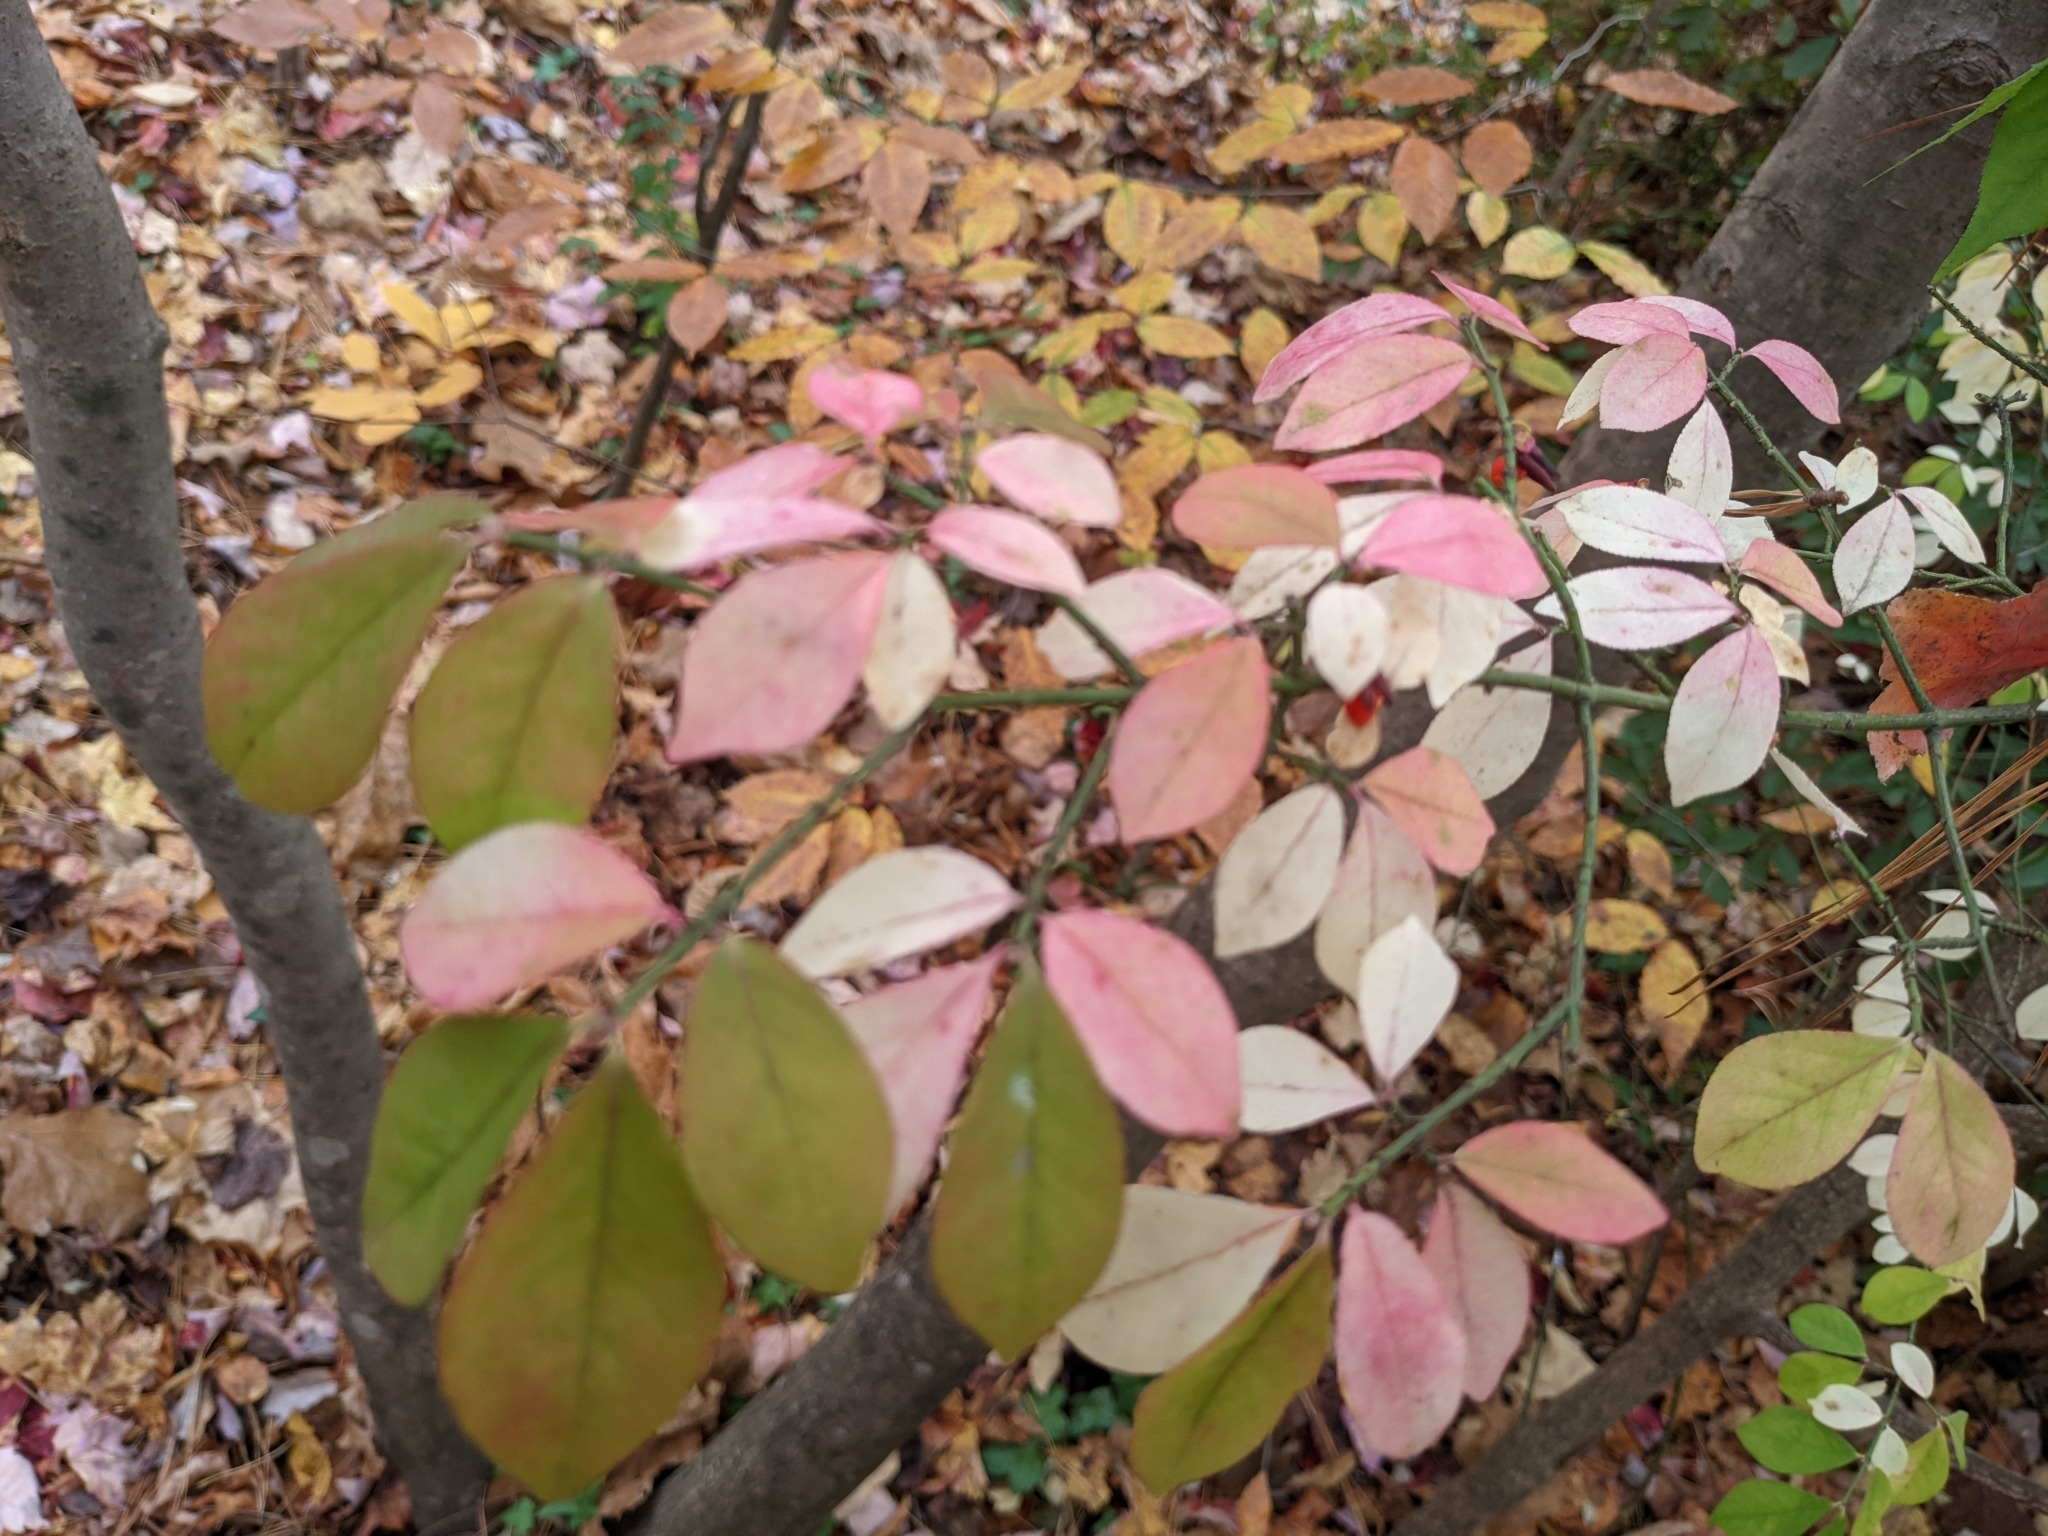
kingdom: Plantae
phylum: Tracheophyta
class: Magnoliopsida
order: Celastrales
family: Celastraceae
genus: Euonymus
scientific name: Euonymus alatus
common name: Winged euonymus
